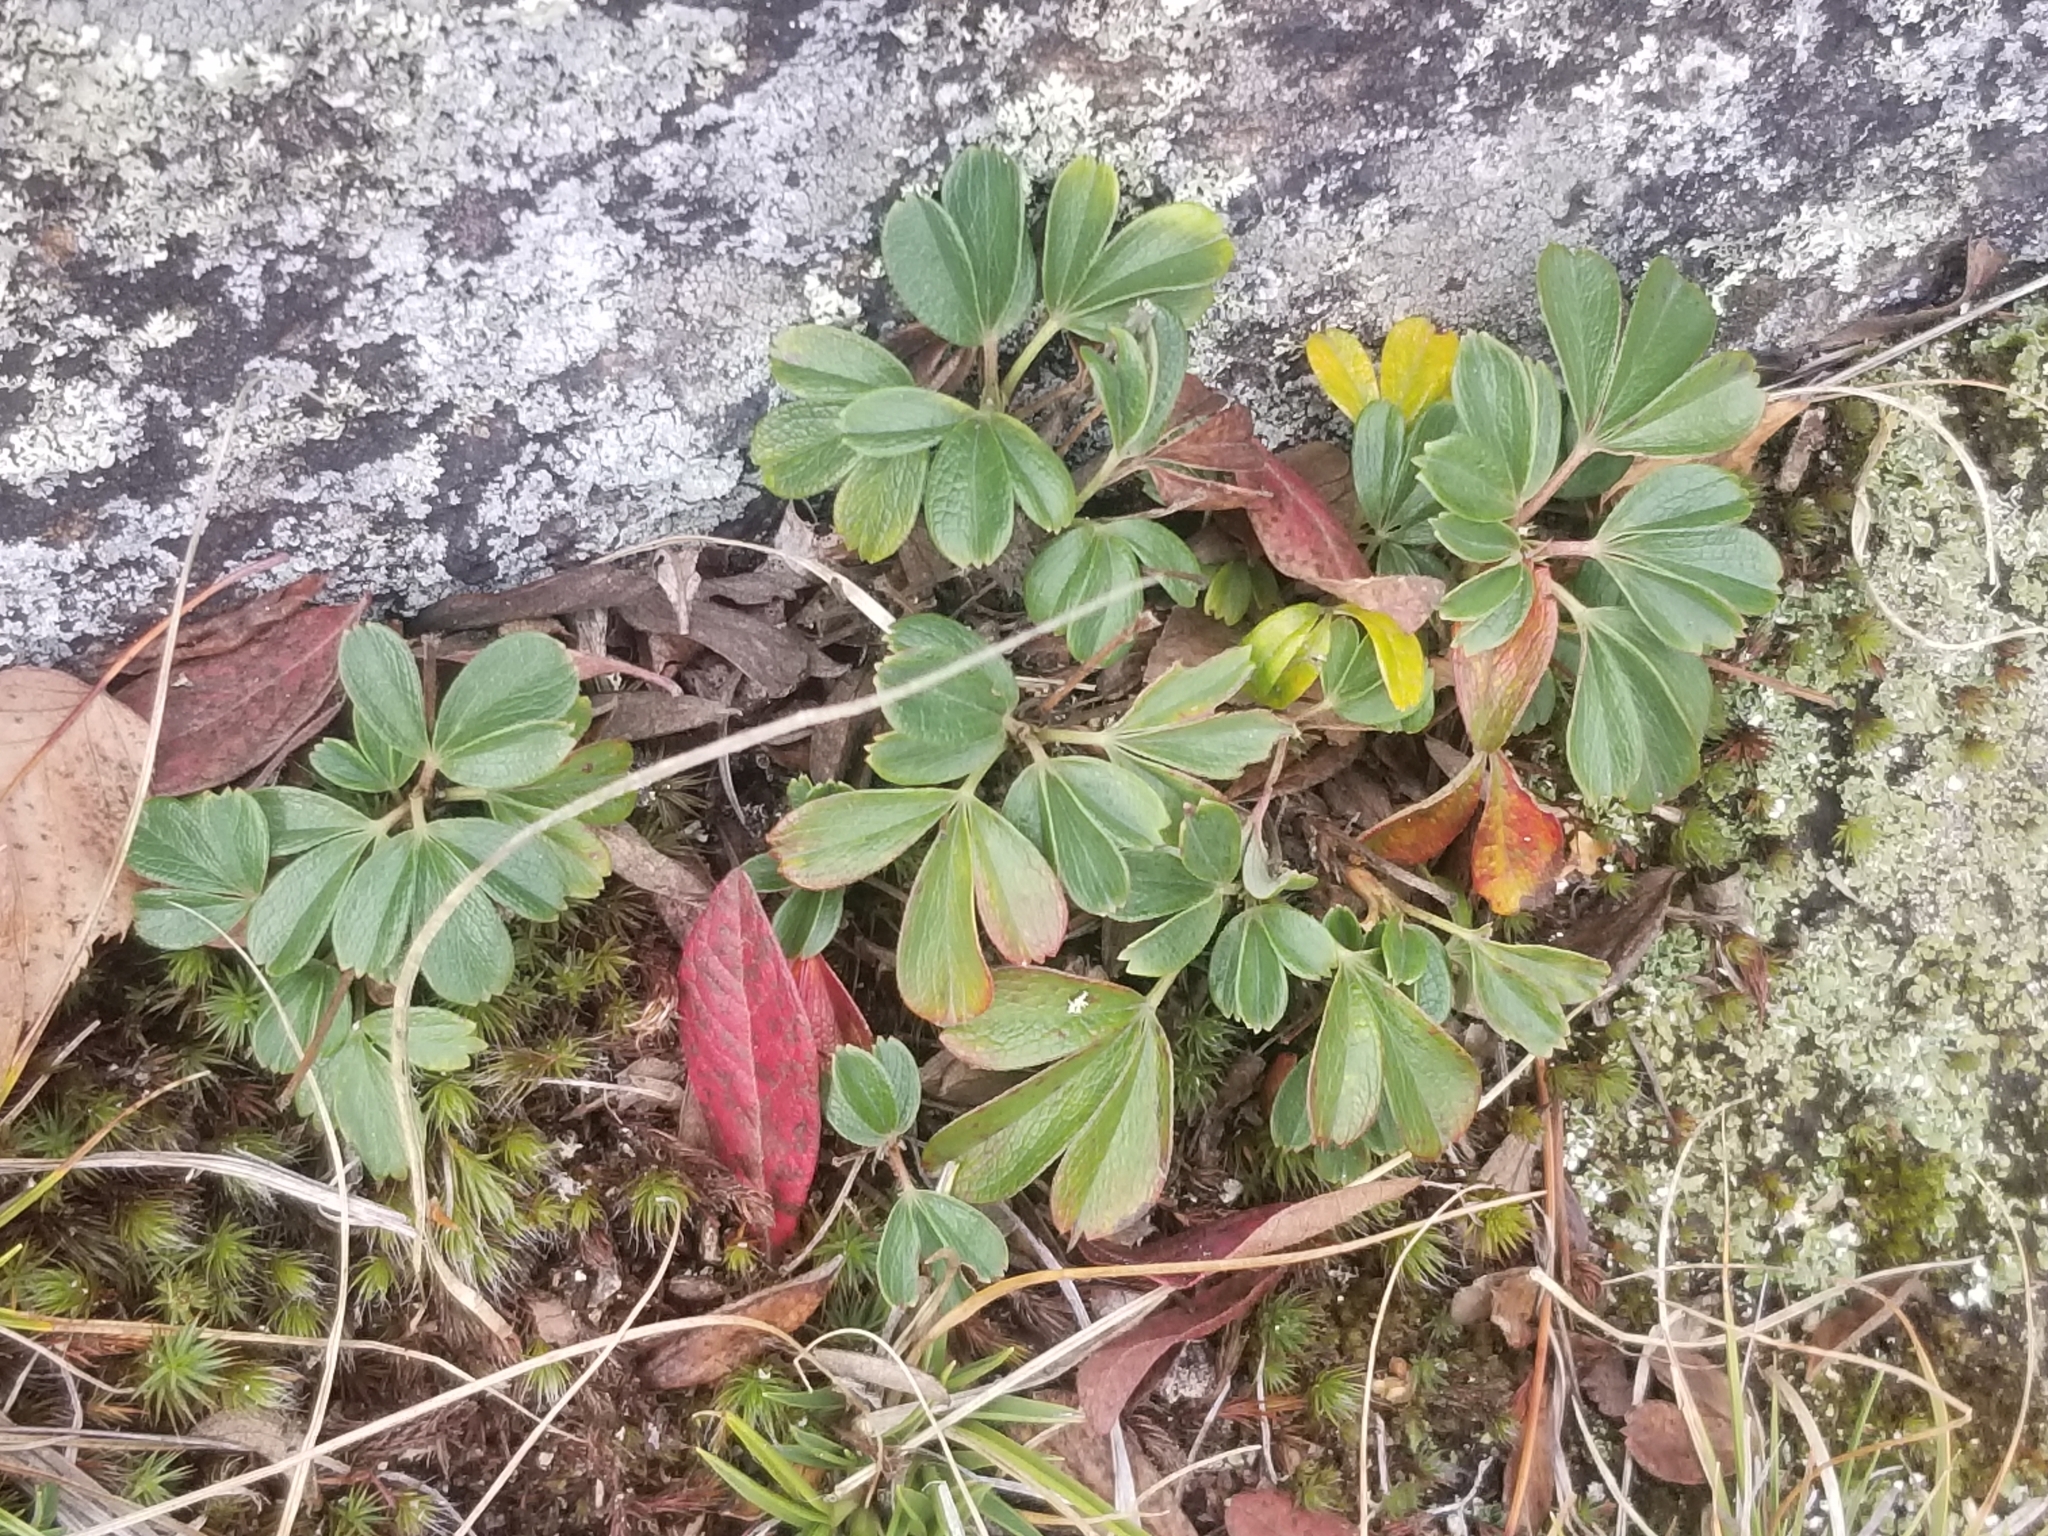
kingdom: Plantae
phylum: Tracheophyta
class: Magnoliopsida
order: Rosales
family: Rosaceae
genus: Sibbaldia
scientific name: Sibbaldia tridentata
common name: Three-toothed cinquefoil
